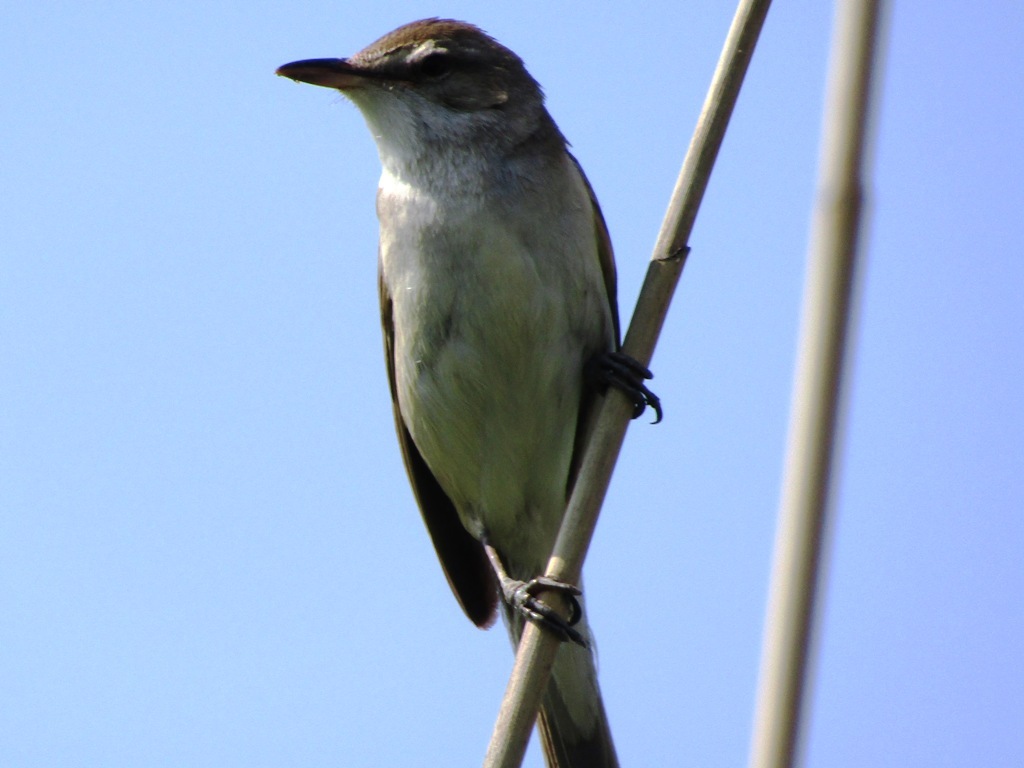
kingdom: Animalia
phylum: Chordata
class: Aves
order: Passeriformes
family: Acrocephalidae
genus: Acrocephalus
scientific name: Acrocephalus arundinaceus
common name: Great reed warbler
